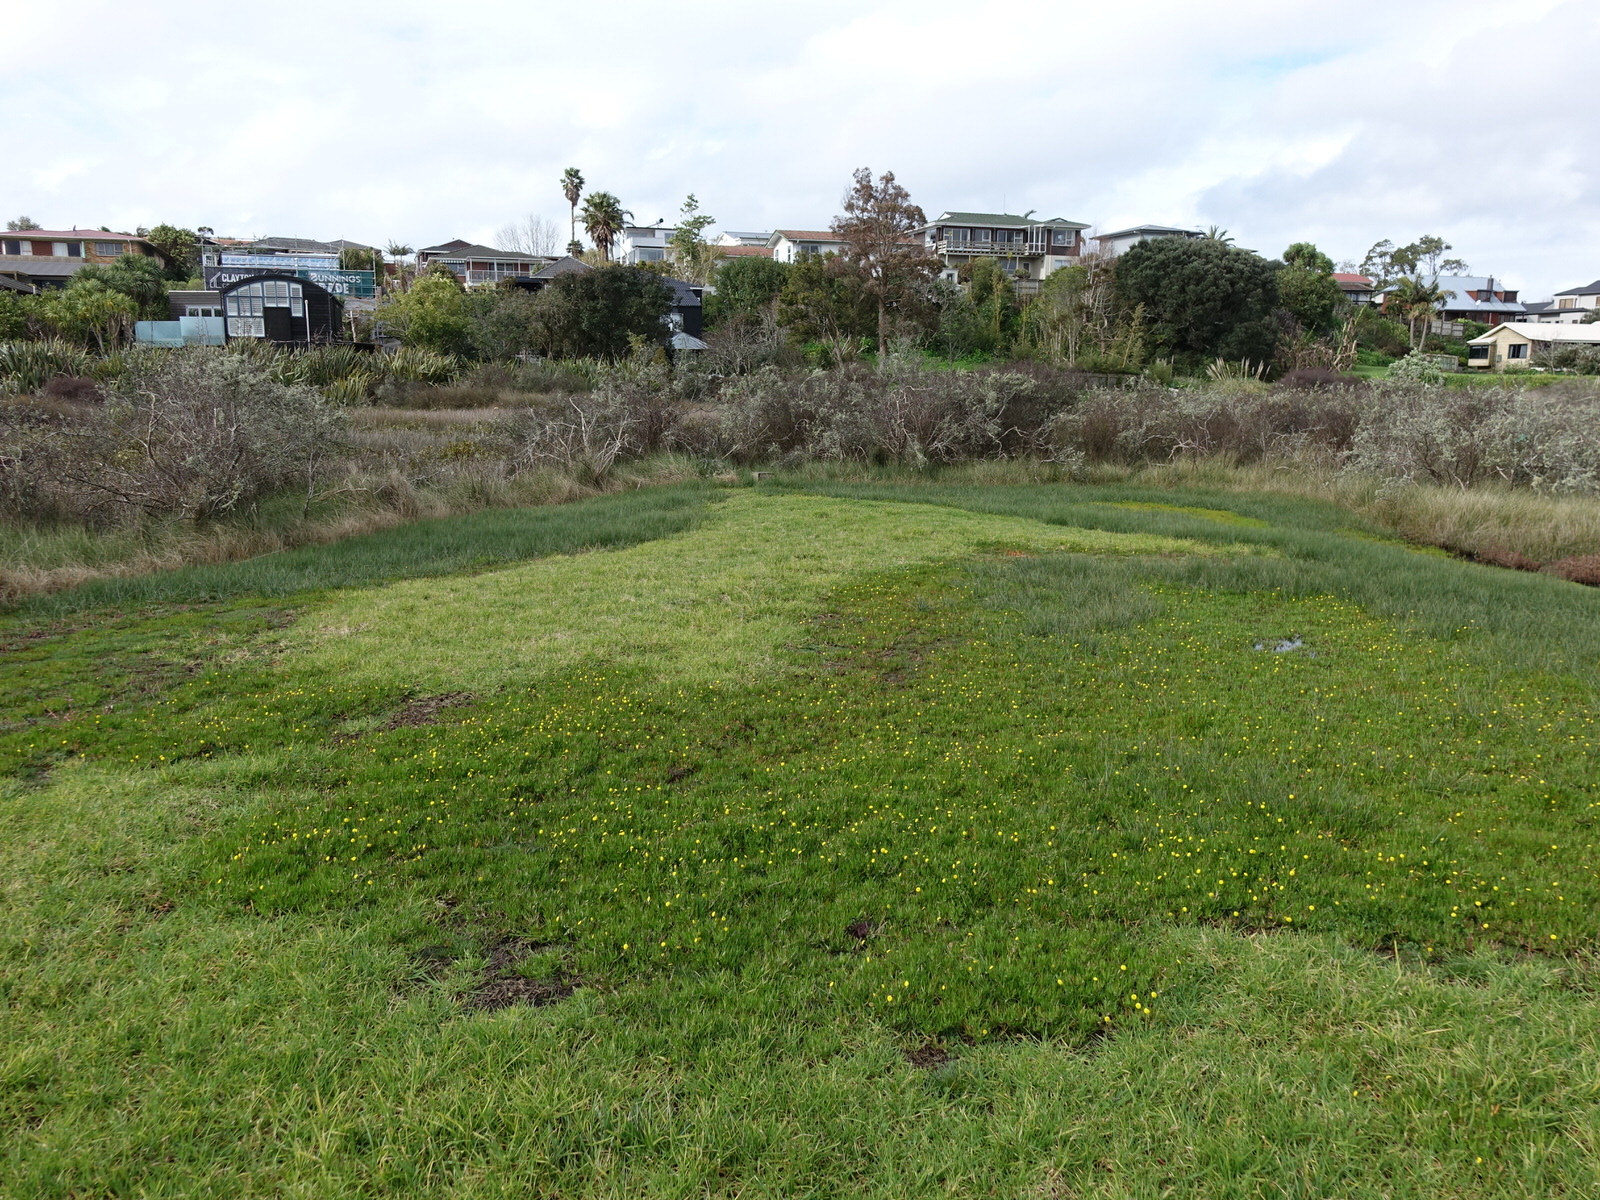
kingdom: Plantae
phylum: Tracheophyta
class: Magnoliopsida
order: Asterales
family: Asteraceae
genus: Cotula
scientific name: Cotula coronopifolia
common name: Buttonweed
